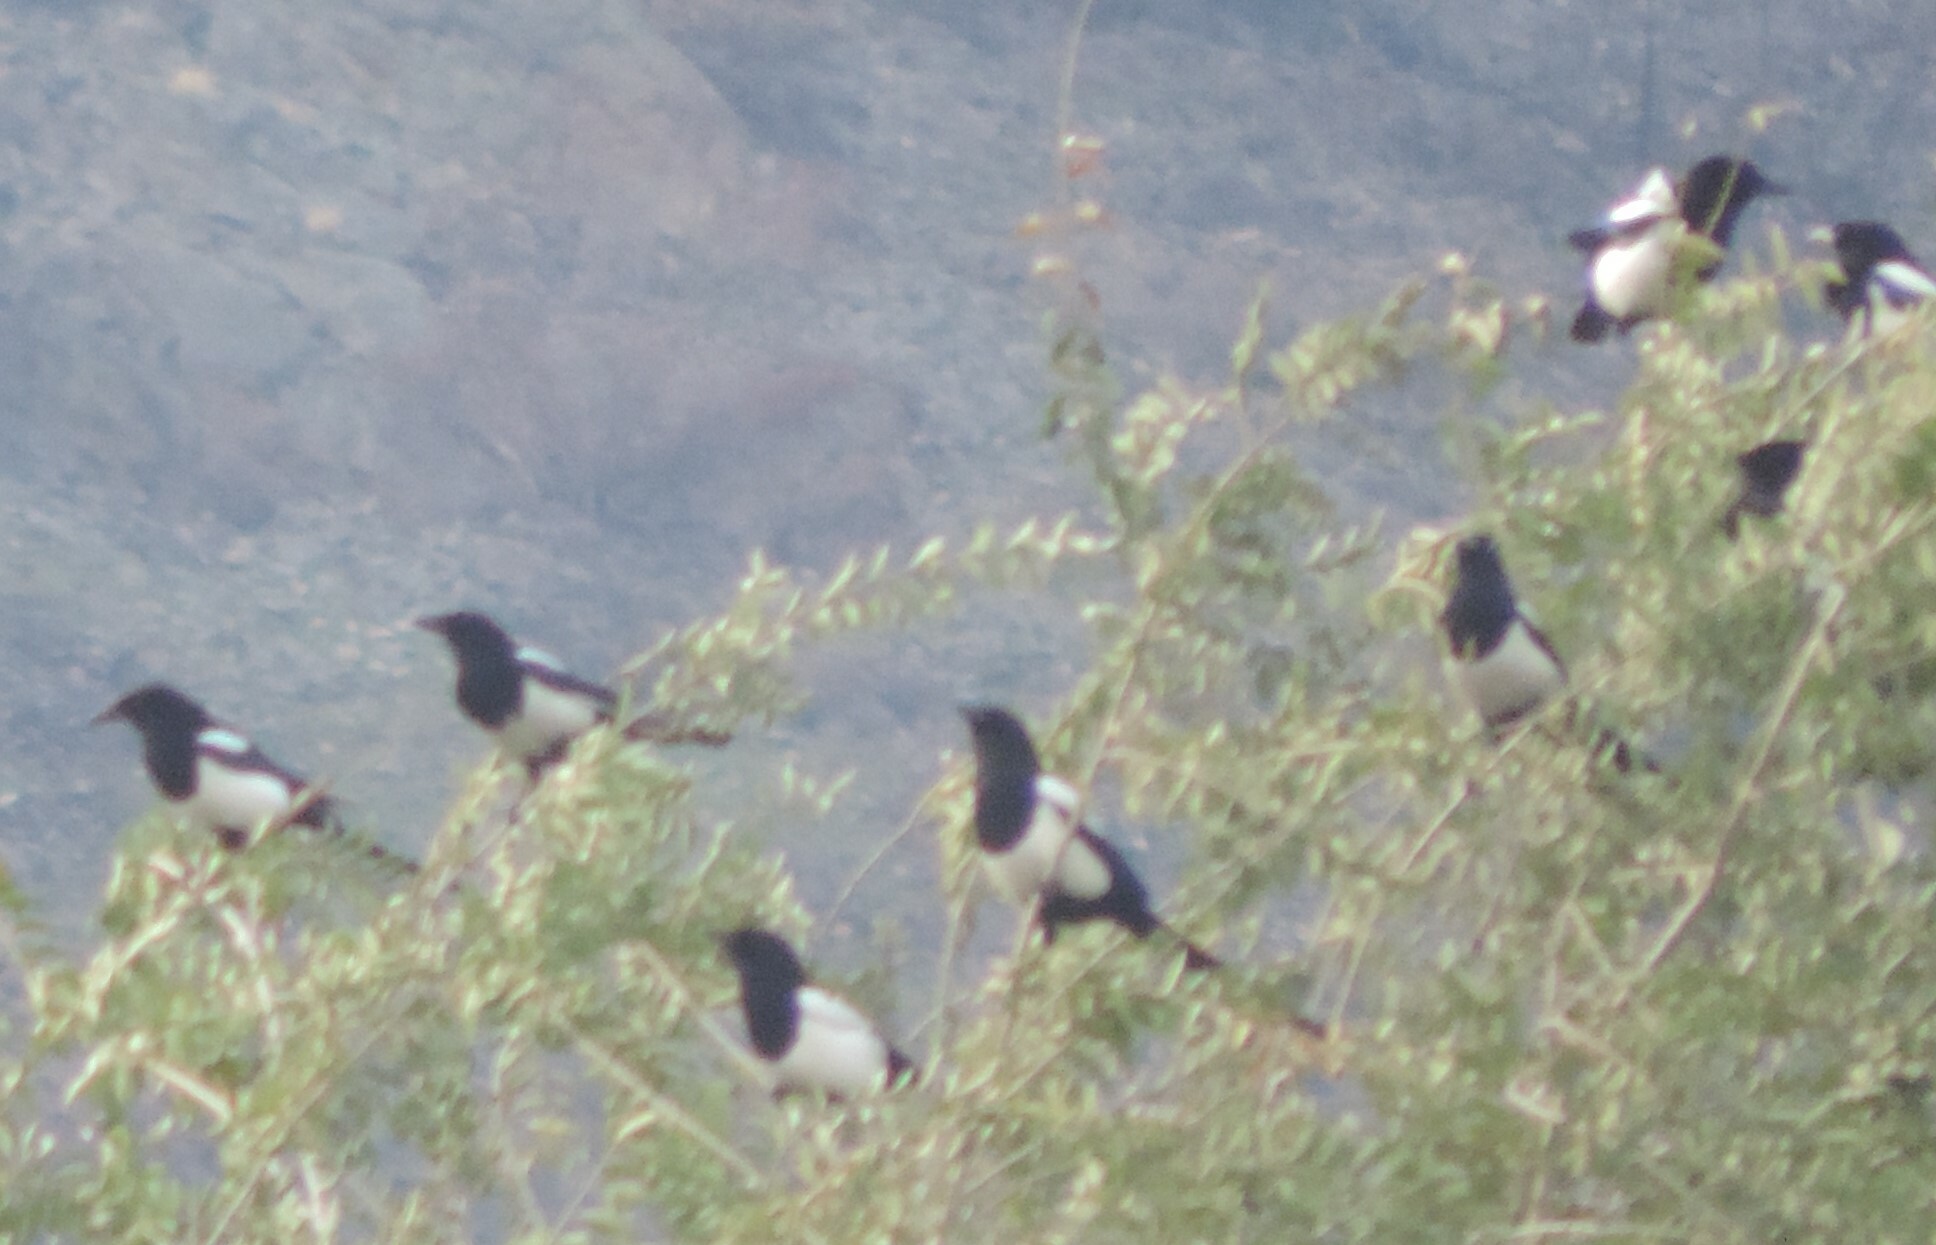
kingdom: Animalia
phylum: Chordata
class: Aves
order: Passeriformes
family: Corvidae
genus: Pica
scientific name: Pica hudsonia
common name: Black-billed magpie
